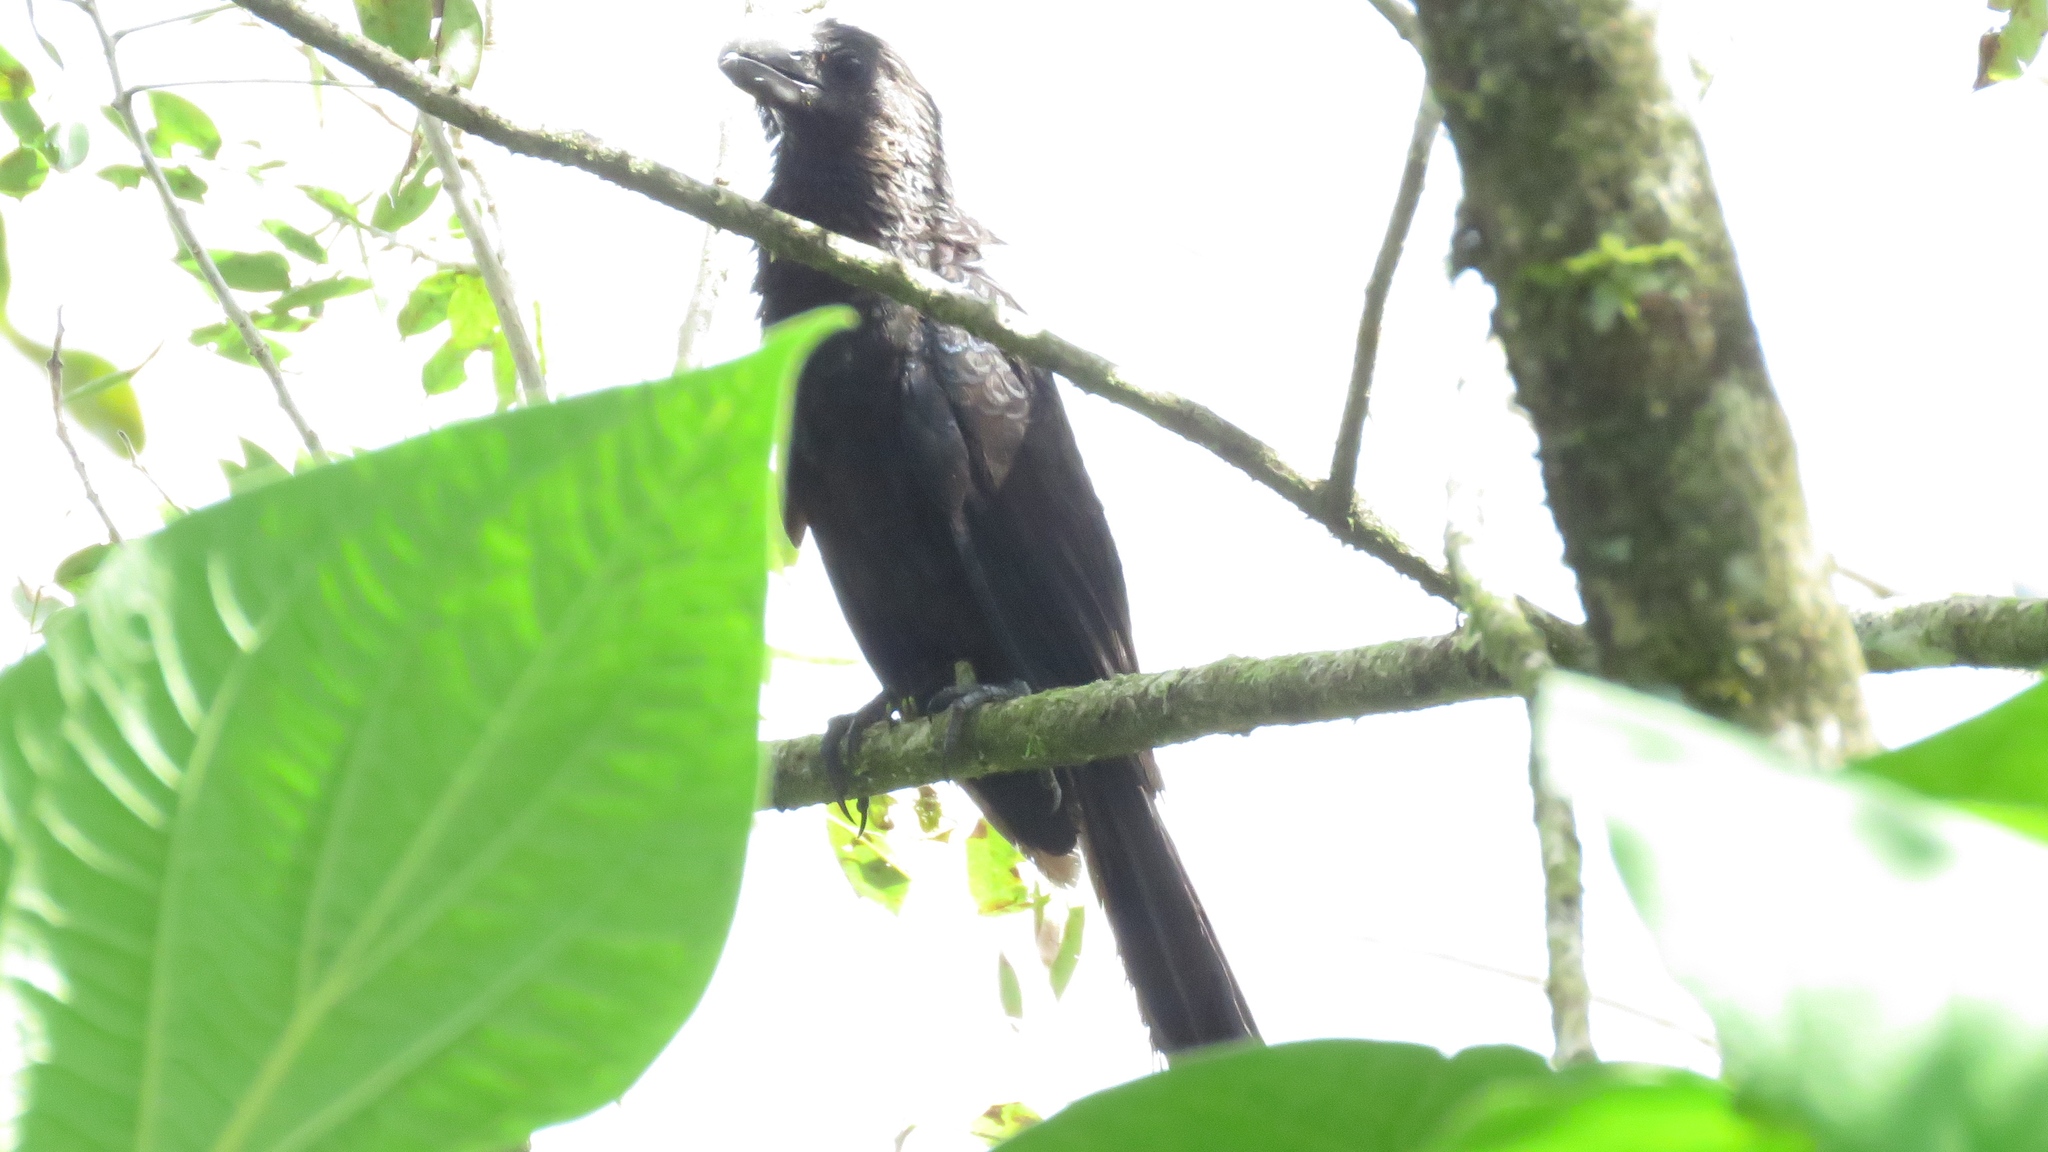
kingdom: Animalia
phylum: Chordata
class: Aves
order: Cuculiformes
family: Cuculidae
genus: Crotophaga
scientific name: Crotophaga ani
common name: Smooth-billed ani
